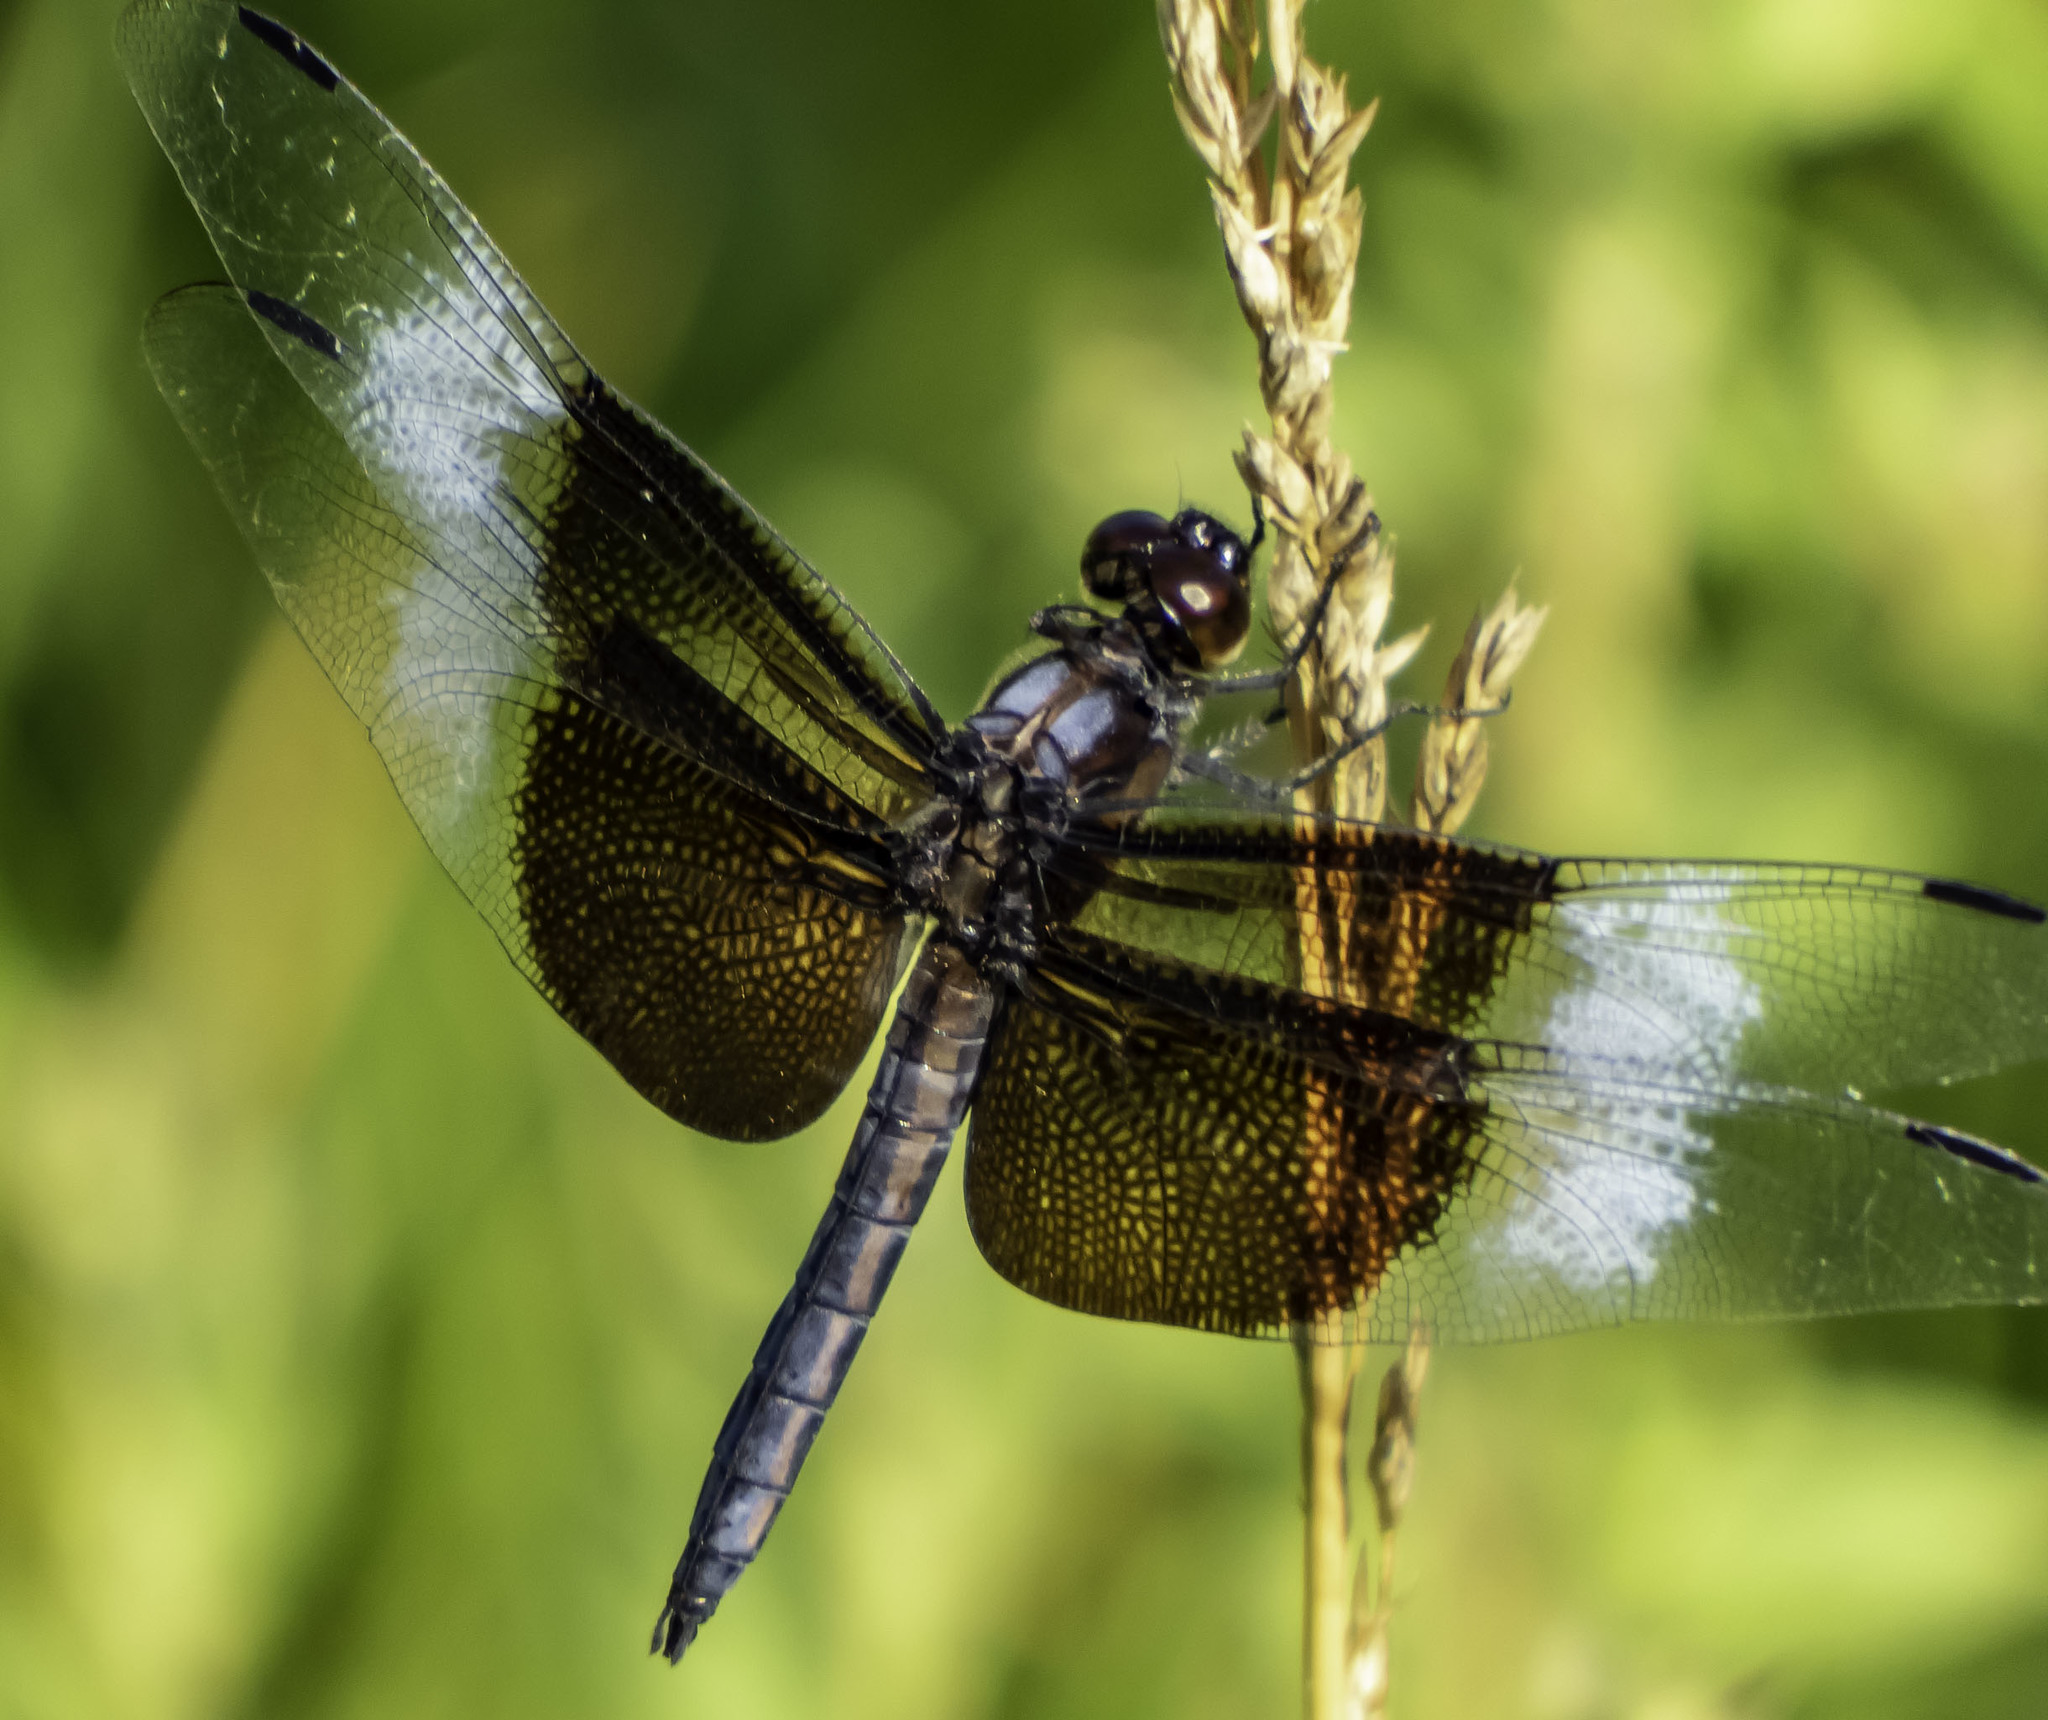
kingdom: Animalia
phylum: Arthropoda
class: Insecta
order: Odonata
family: Libellulidae
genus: Libellula
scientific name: Libellula luctuosa
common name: Widow skimmer
